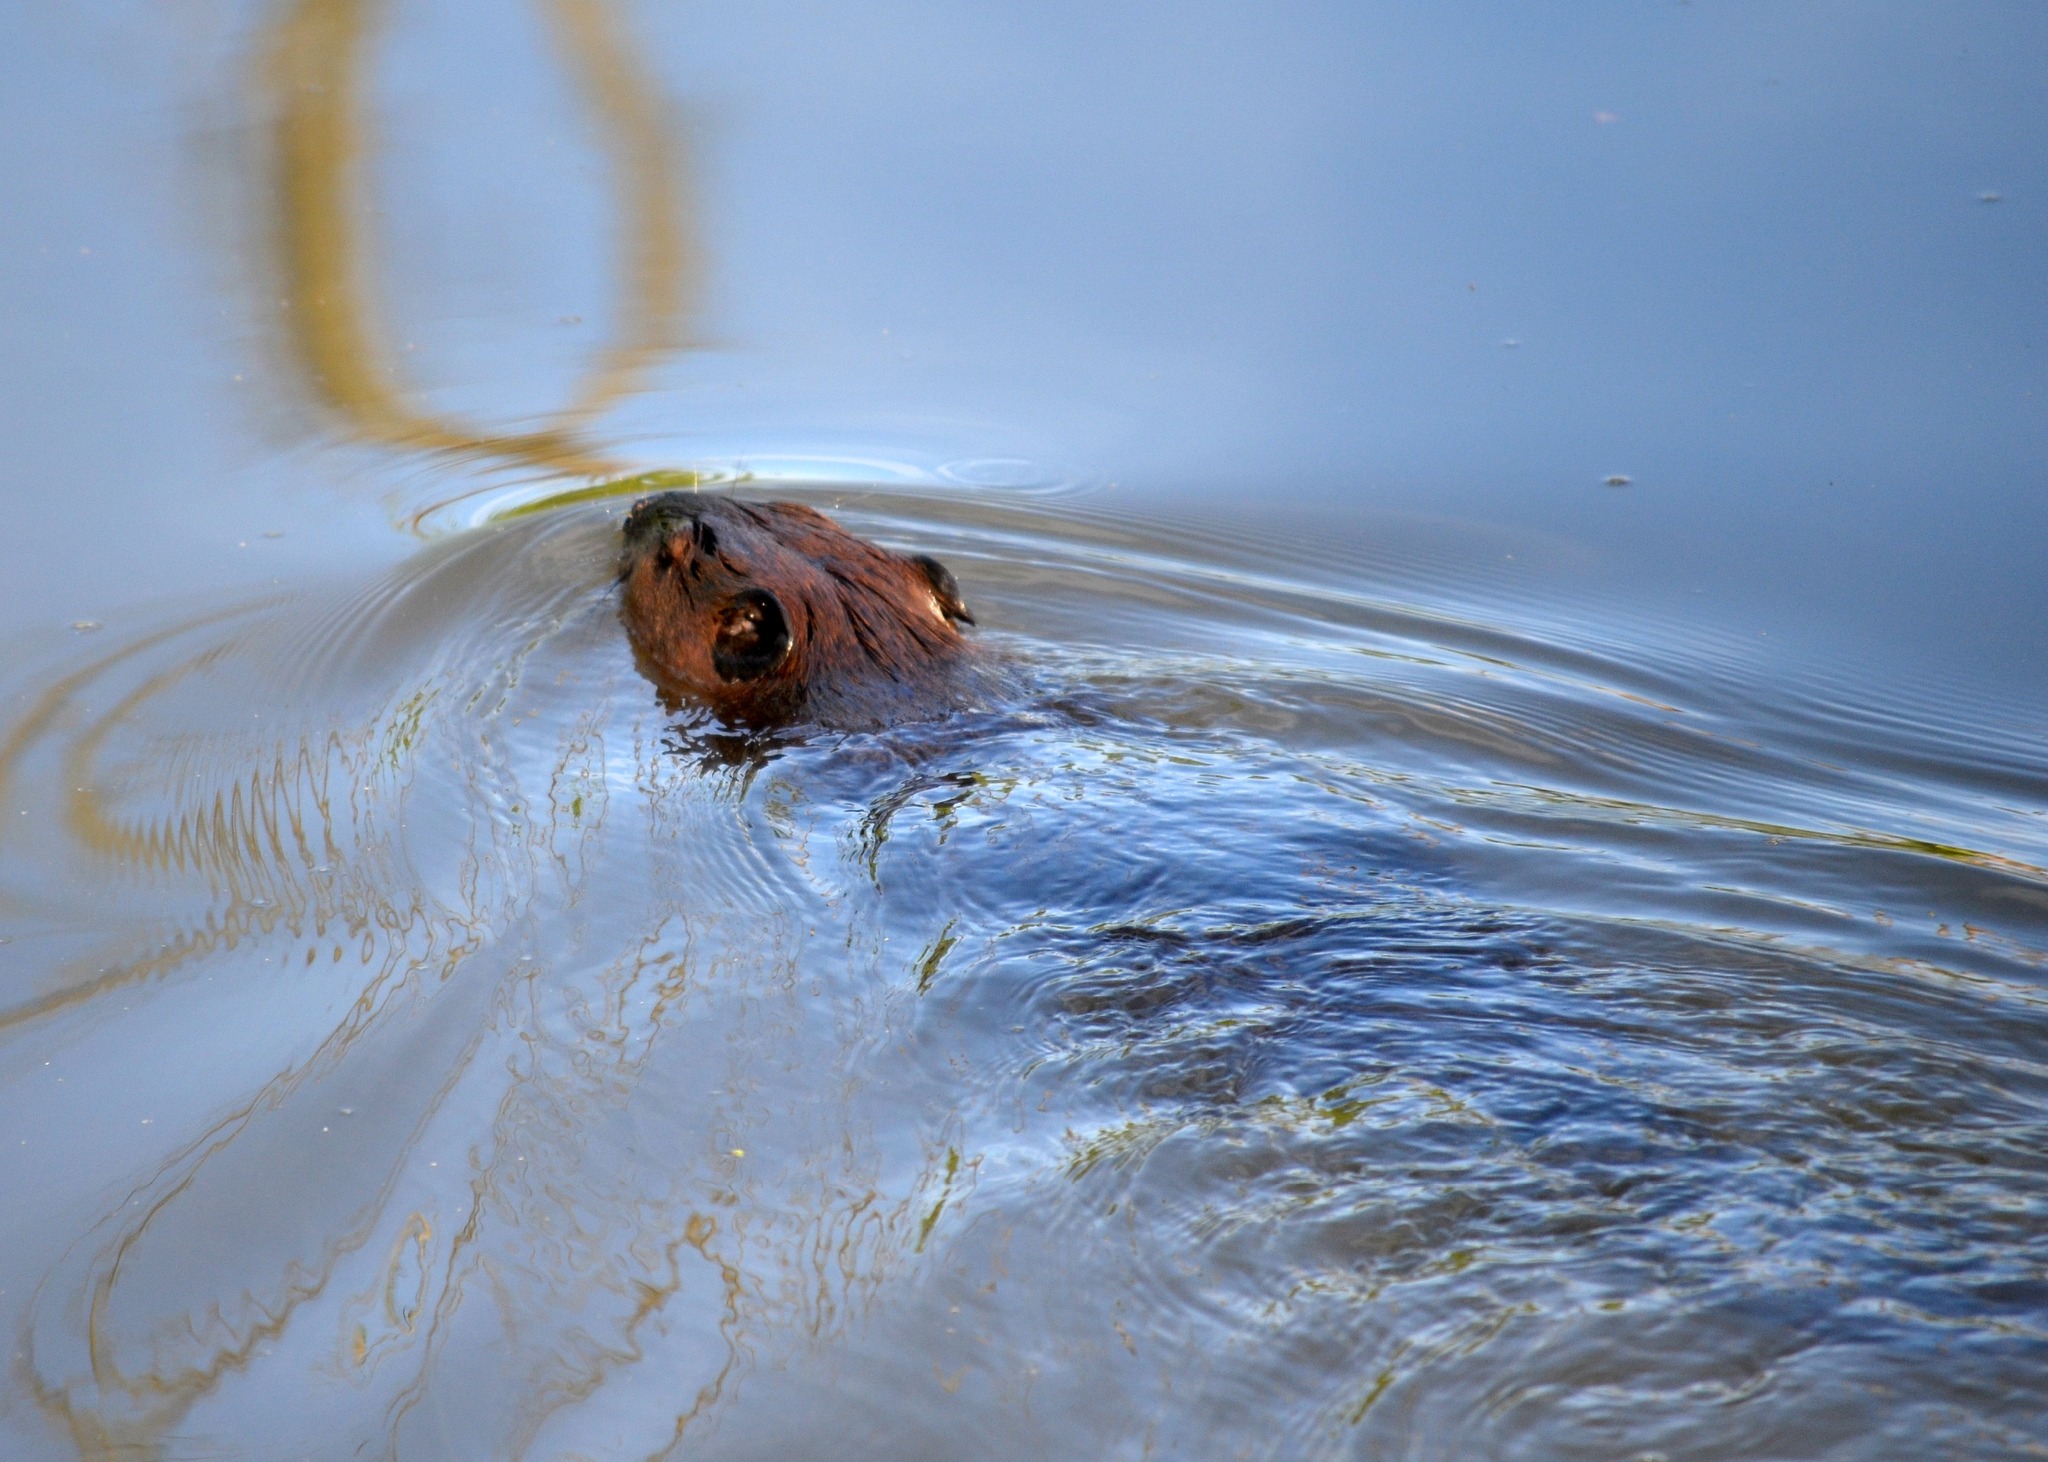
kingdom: Animalia
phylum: Chordata
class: Mammalia
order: Rodentia
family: Castoridae
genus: Castor
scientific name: Castor canadensis
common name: American beaver
